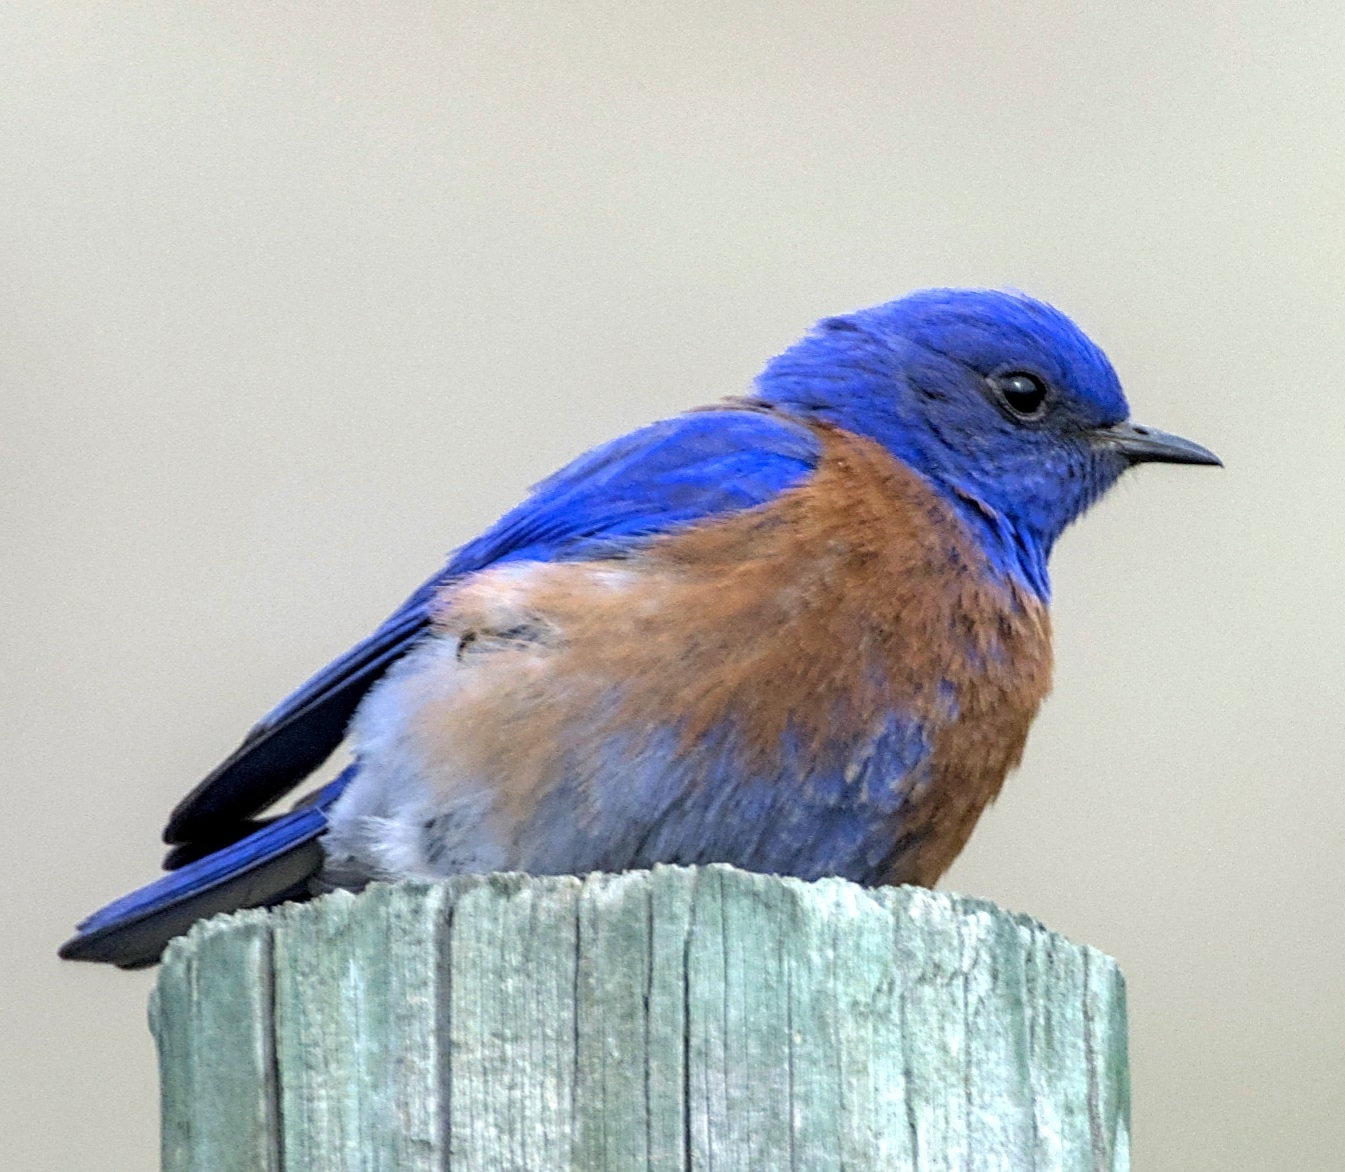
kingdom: Animalia
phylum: Chordata
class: Aves
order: Passeriformes
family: Turdidae
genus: Sialia
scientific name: Sialia mexicana
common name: Western bluebird
